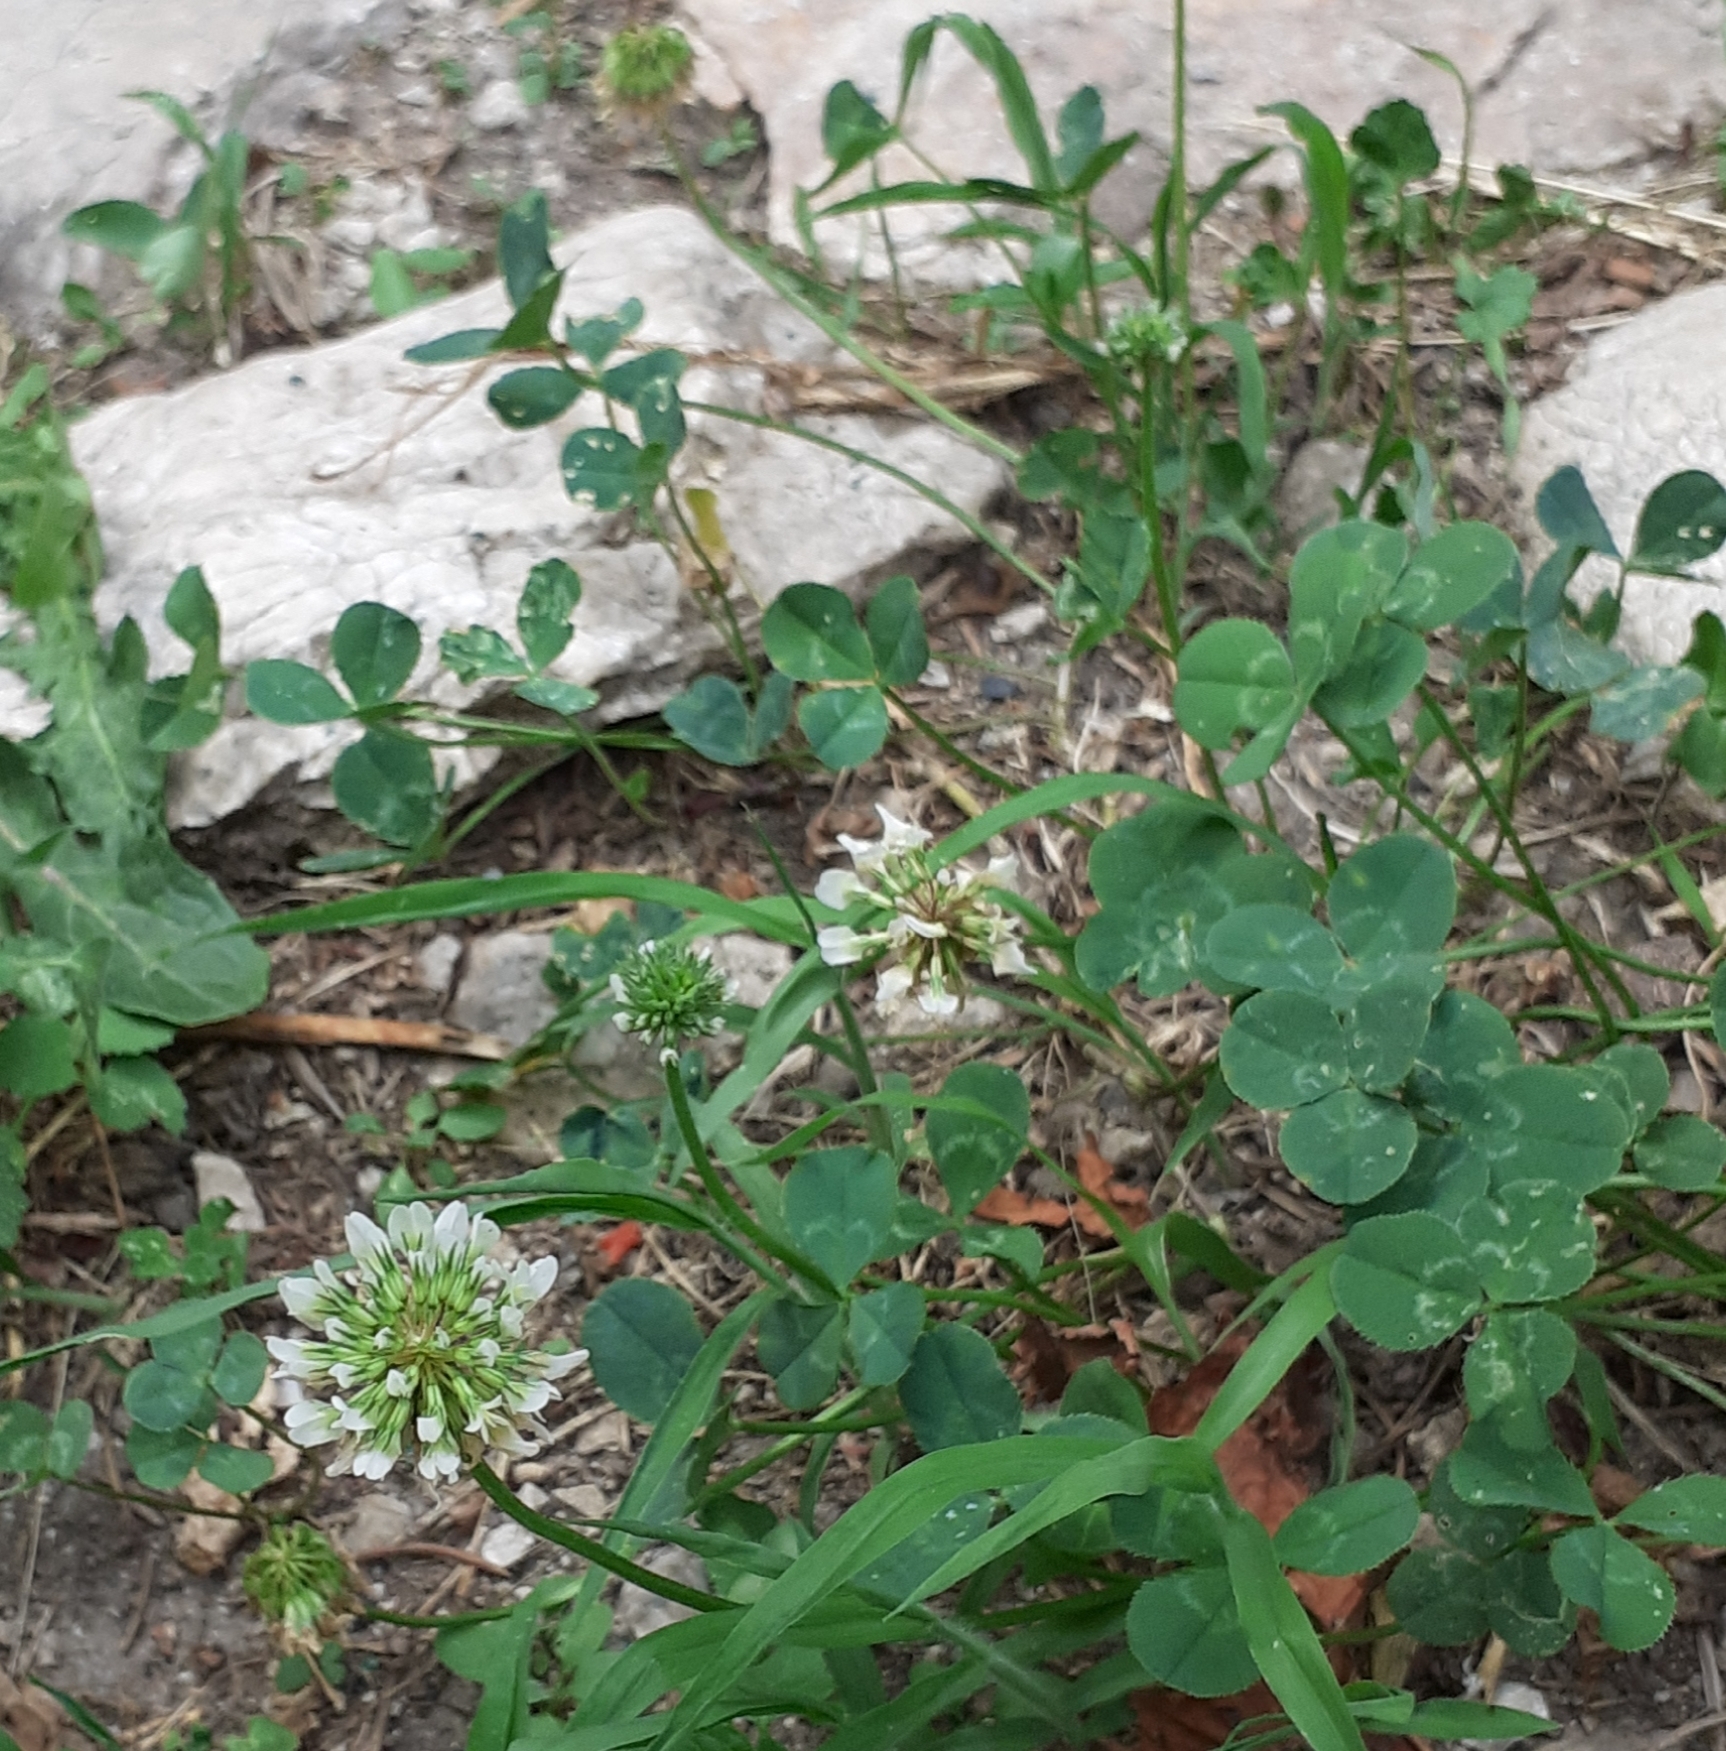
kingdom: Plantae
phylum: Tracheophyta
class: Magnoliopsida
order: Fabales
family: Fabaceae
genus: Trifolium
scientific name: Trifolium repens
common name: White clover
